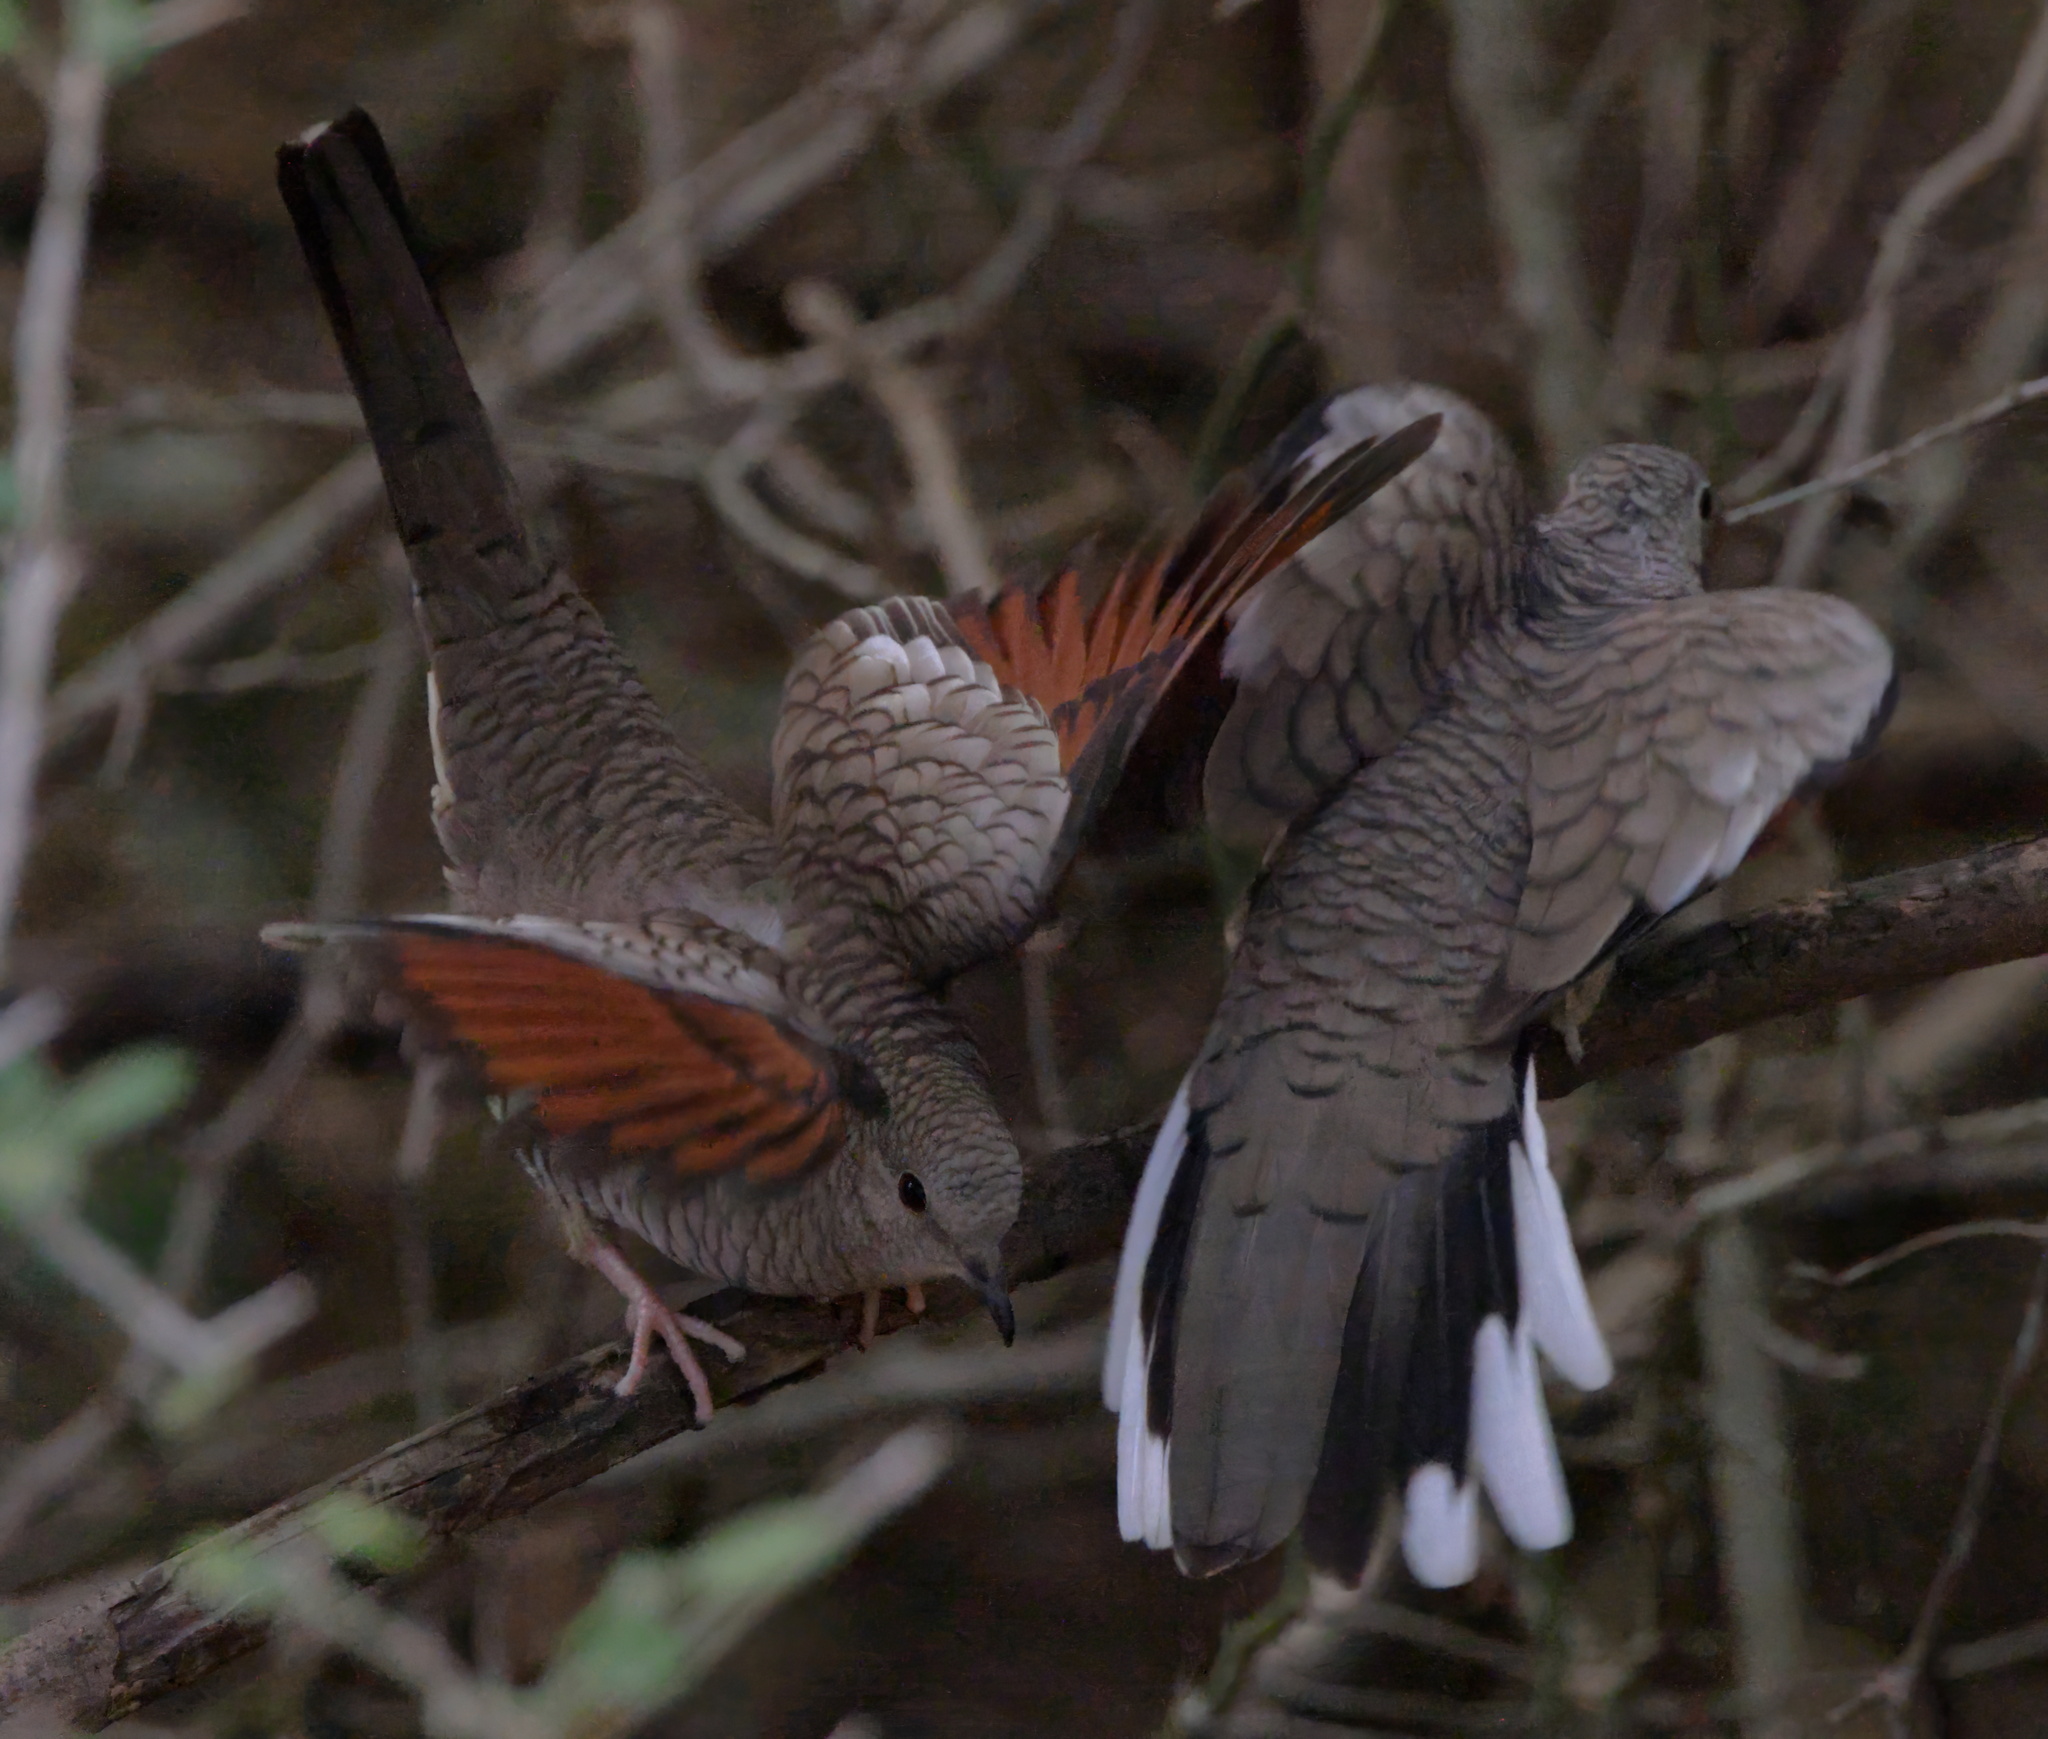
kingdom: Animalia
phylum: Chordata
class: Aves
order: Columbiformes
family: Columbidae
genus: Columbina
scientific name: Columbina inca
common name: Inca dove
